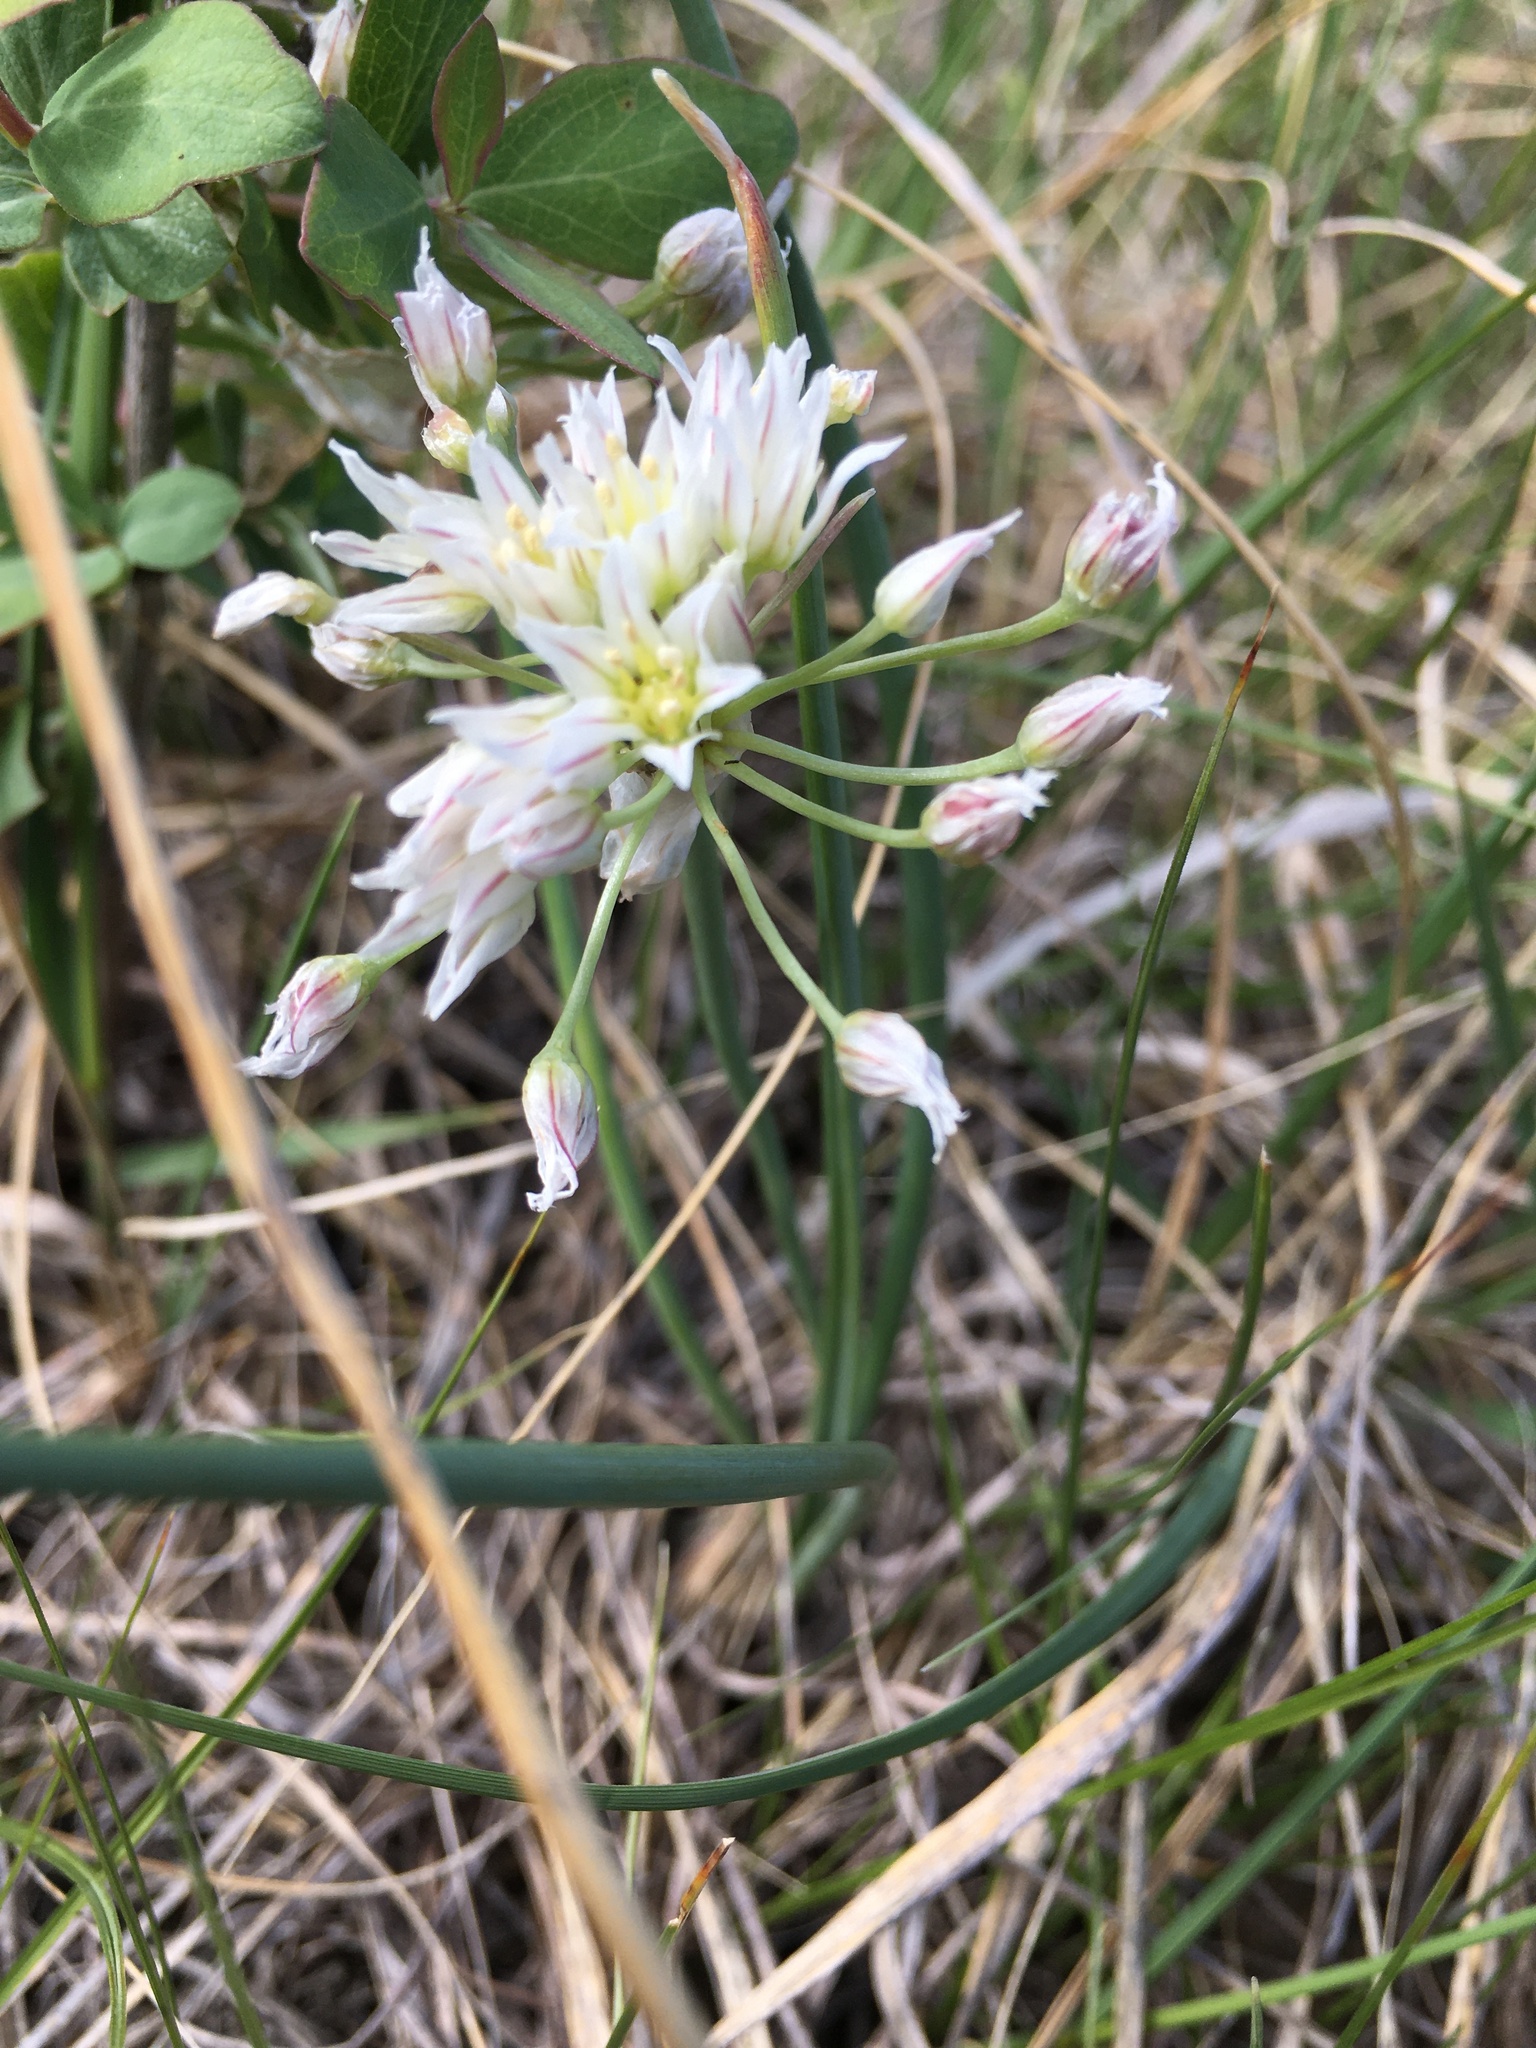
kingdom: Plantae
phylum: Tracheophyta
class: Liliopsida
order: Asparagales
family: Amaryllidaceae
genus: Allium
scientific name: Allium textile
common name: Prairie onion
